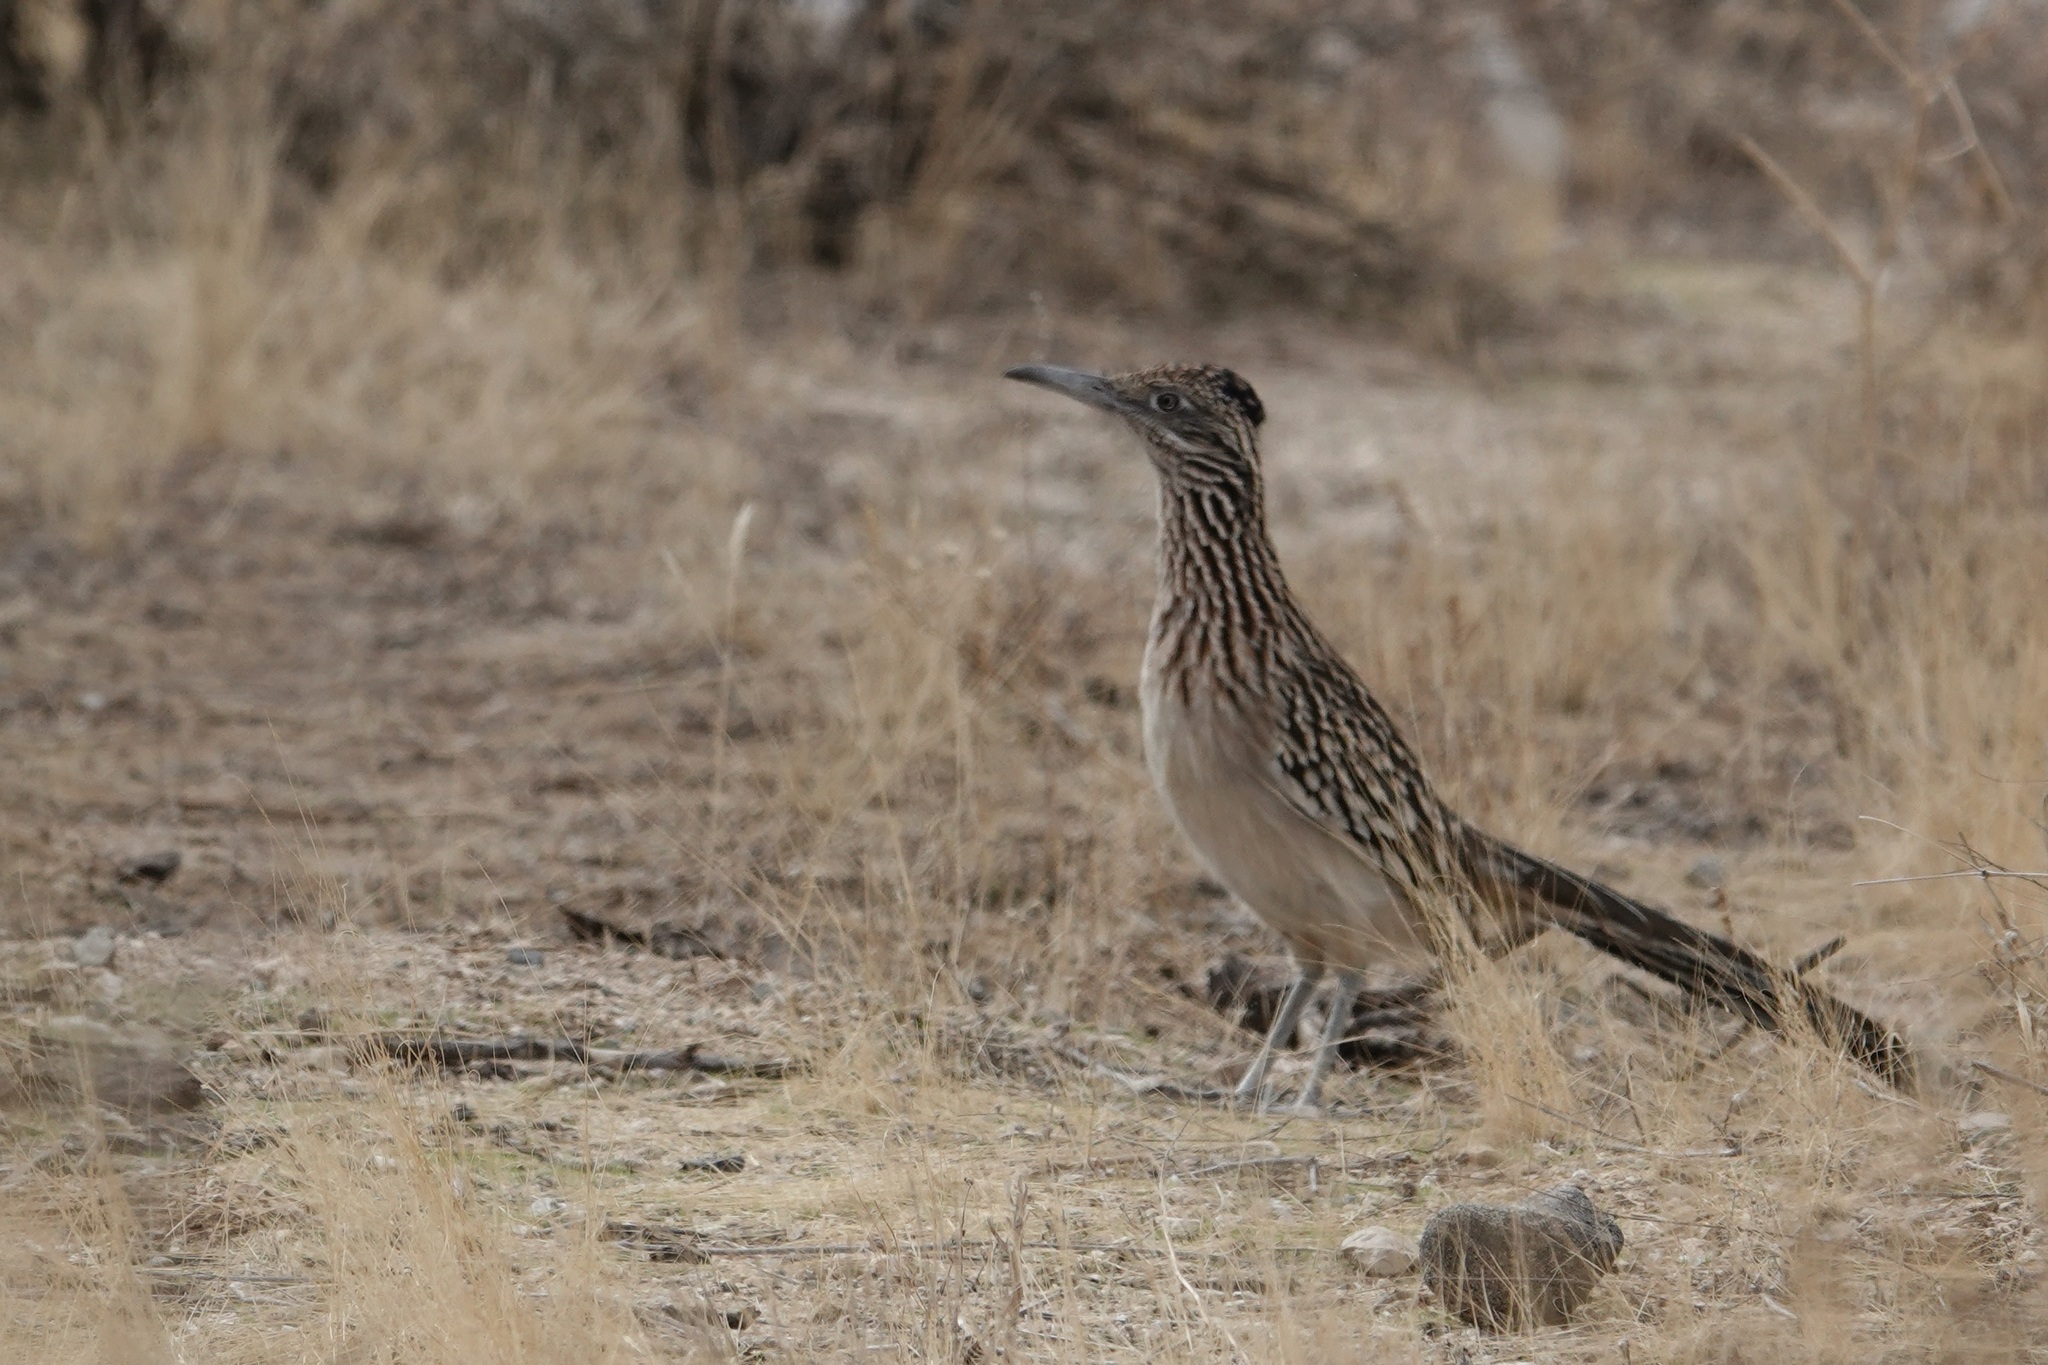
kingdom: Animalia
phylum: Chordata
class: Aves
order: Cuculiformes
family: Cuculidae
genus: Geococcyx
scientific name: Geococcyx californianus
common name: Greater roadrunner
